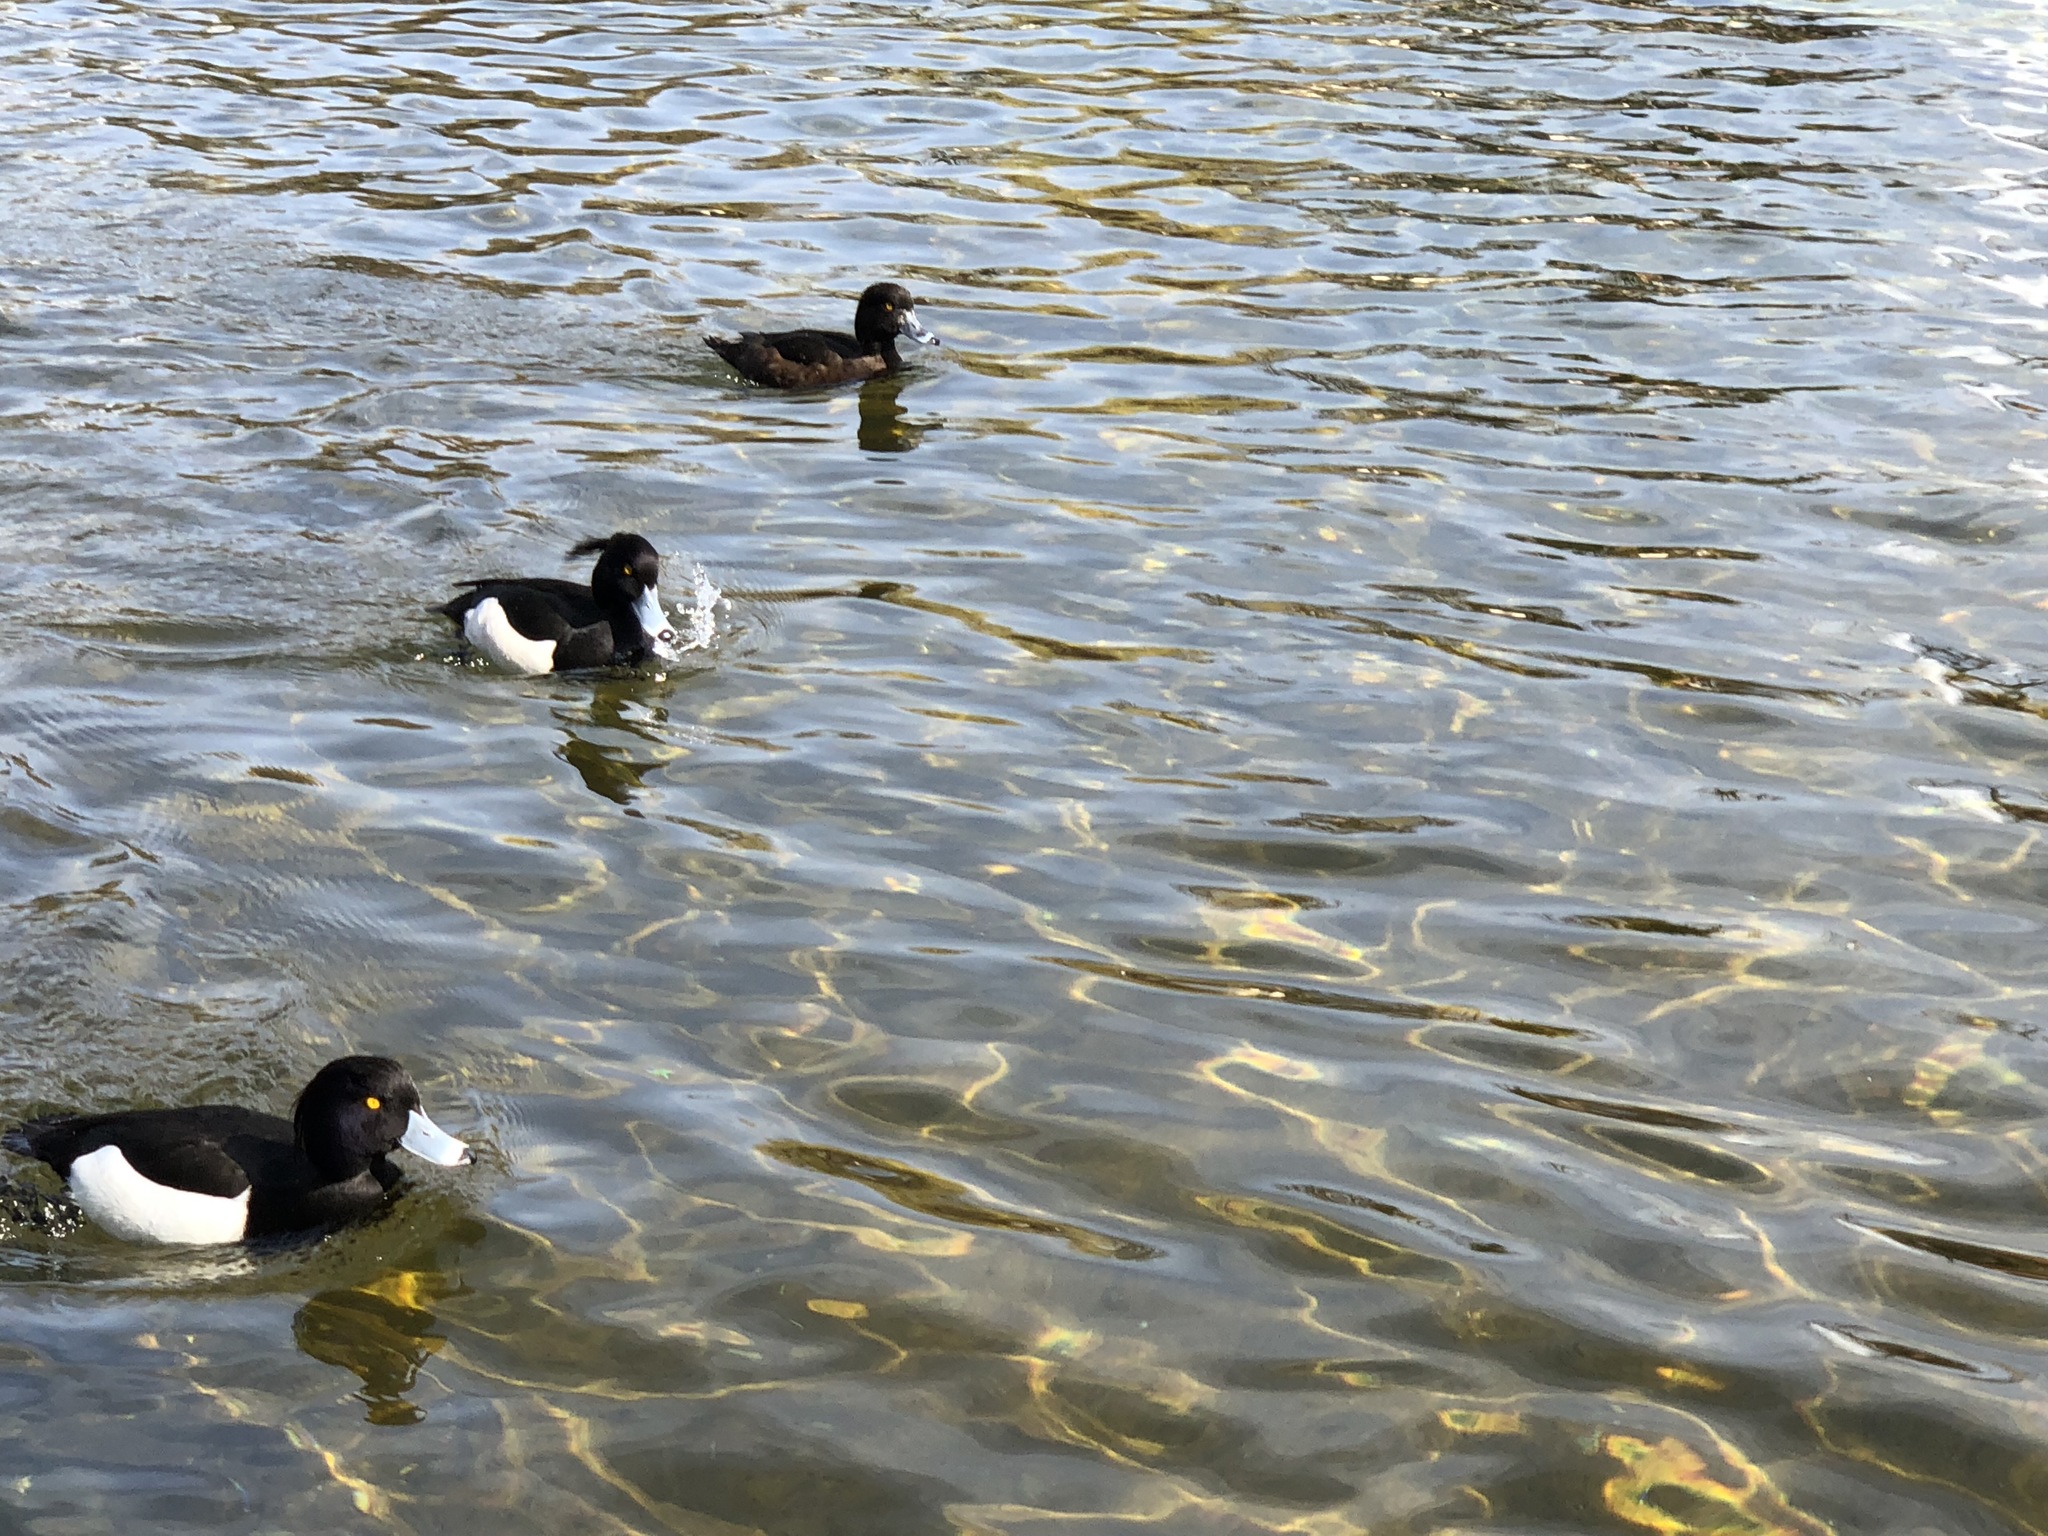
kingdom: Animalia
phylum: Chordata
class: Aves
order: Anseriformes
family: Anatidae
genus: Aythya
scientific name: Aythya fuligula
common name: Tufted duck
